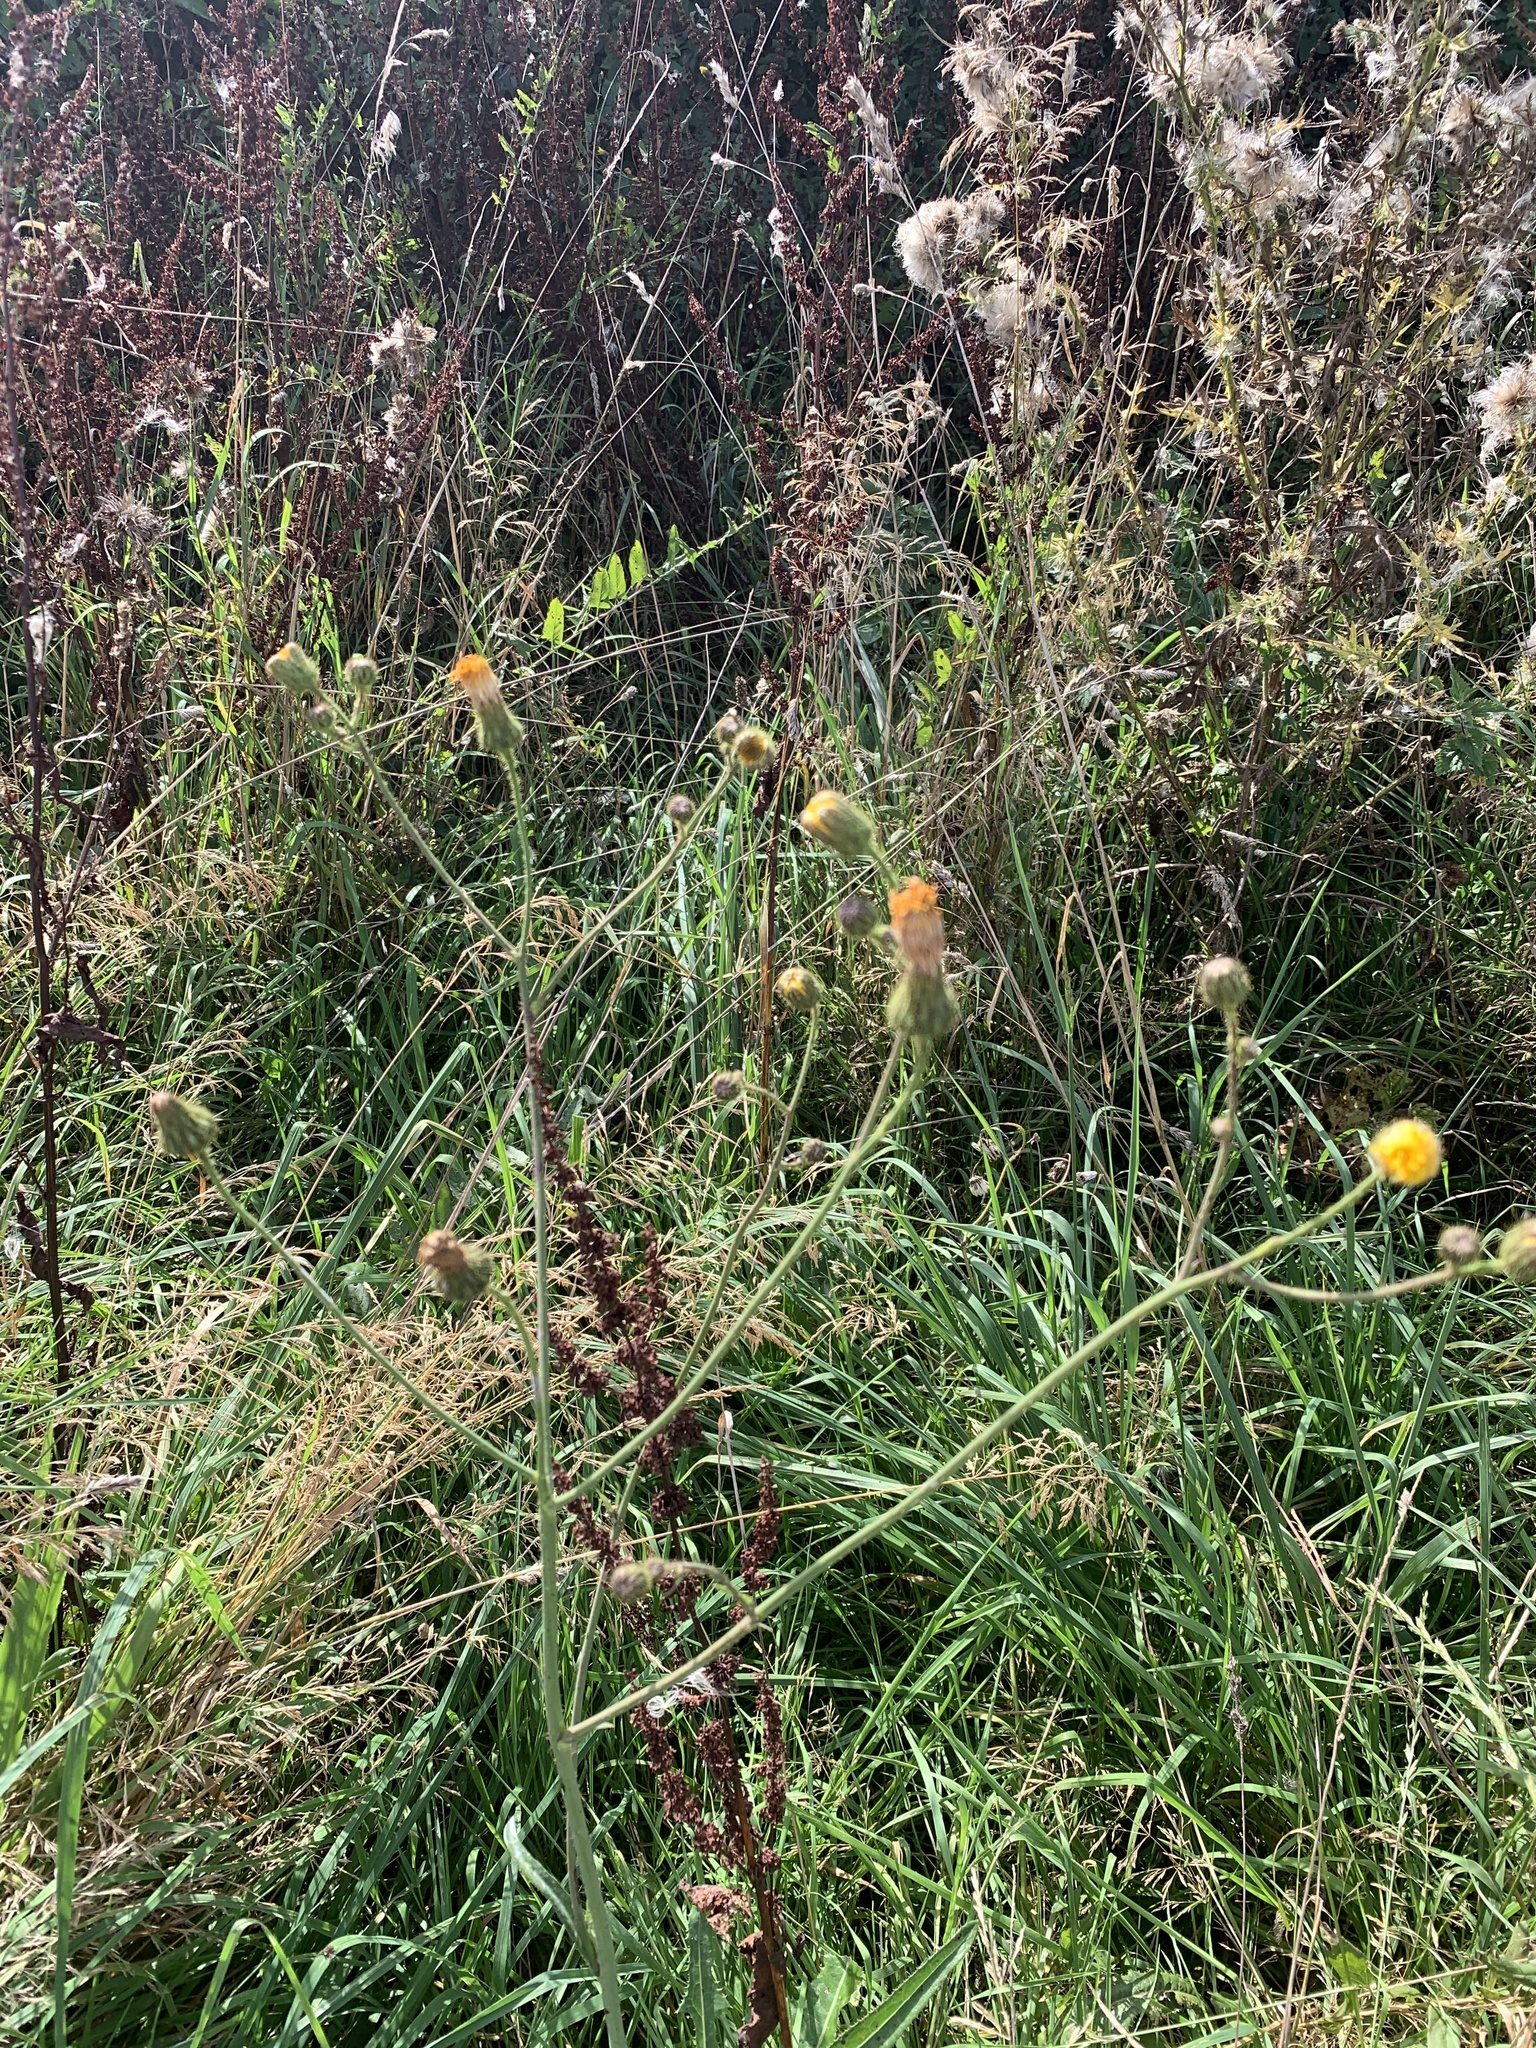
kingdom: Plantae
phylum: Tracheophyta
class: Magnoliopsida
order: Asterales
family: Asteraceae
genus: Sonchus
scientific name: Sonchus arvensis
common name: Perennial sow-thistle
